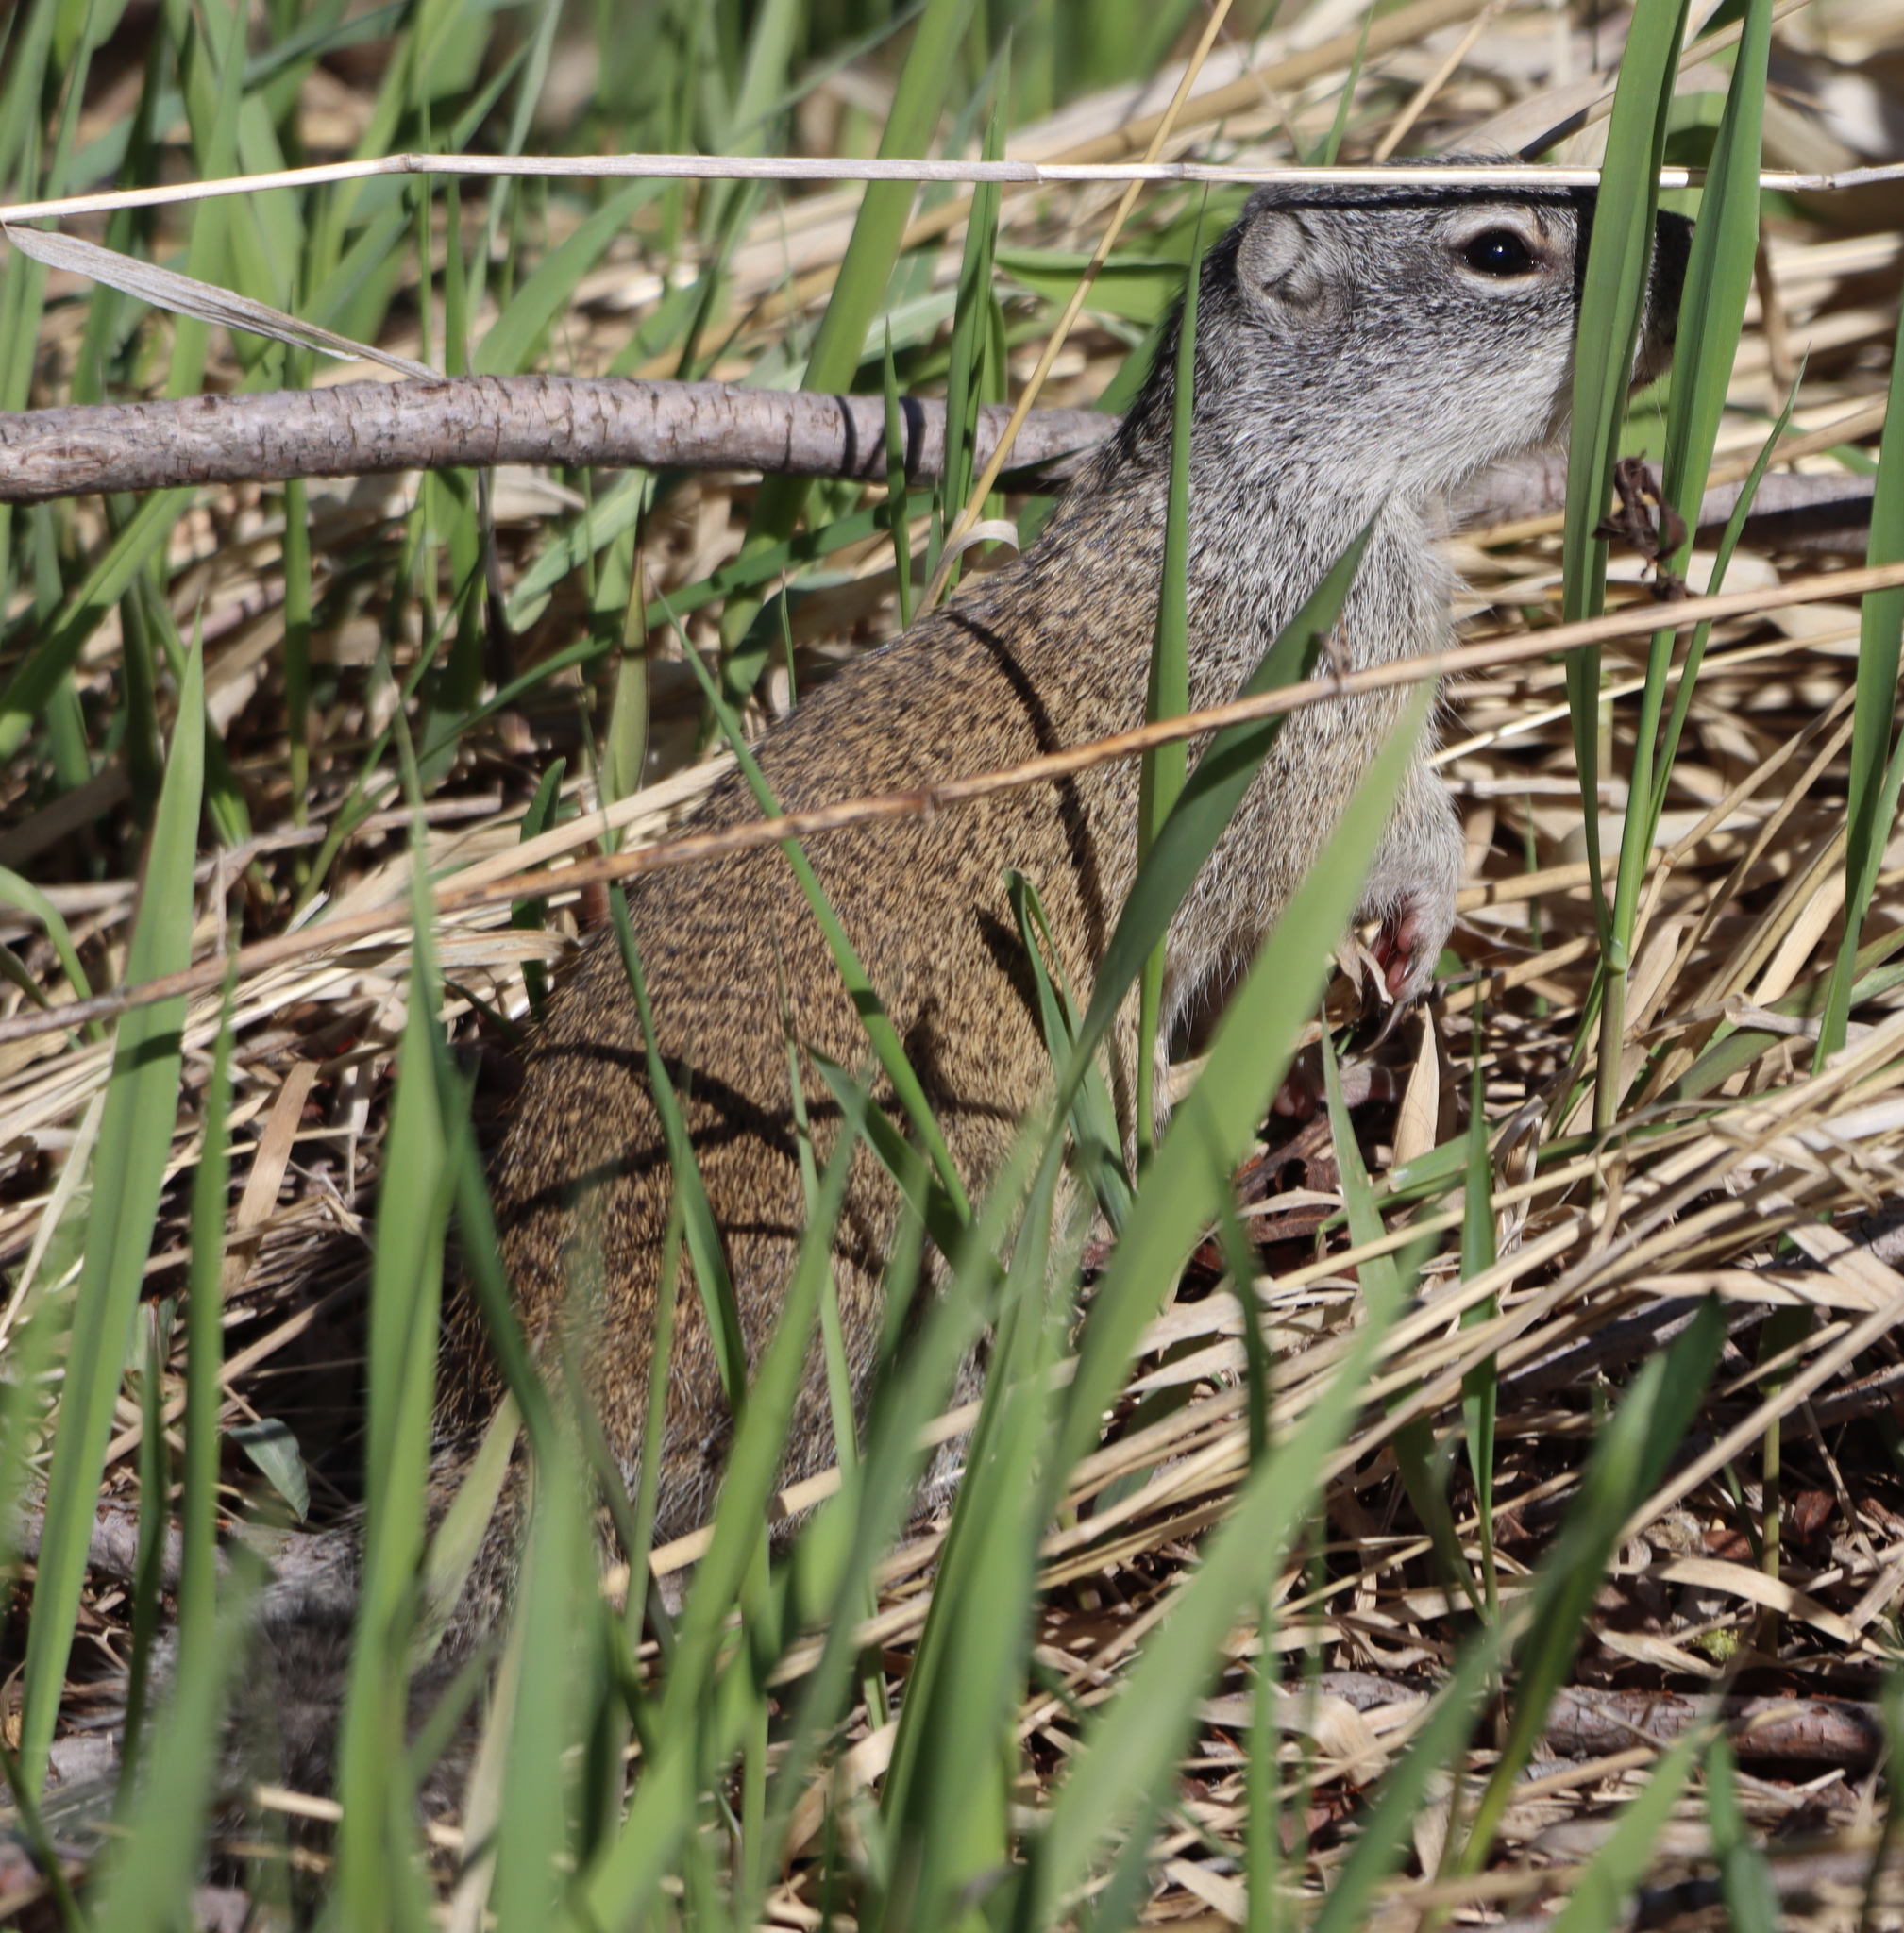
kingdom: Animalia
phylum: Chordata
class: Mammalia
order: Rodentia
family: Sciuridae
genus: Poliocitellus
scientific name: Poliocitellus franklinii
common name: Franklin's ground squirrel
